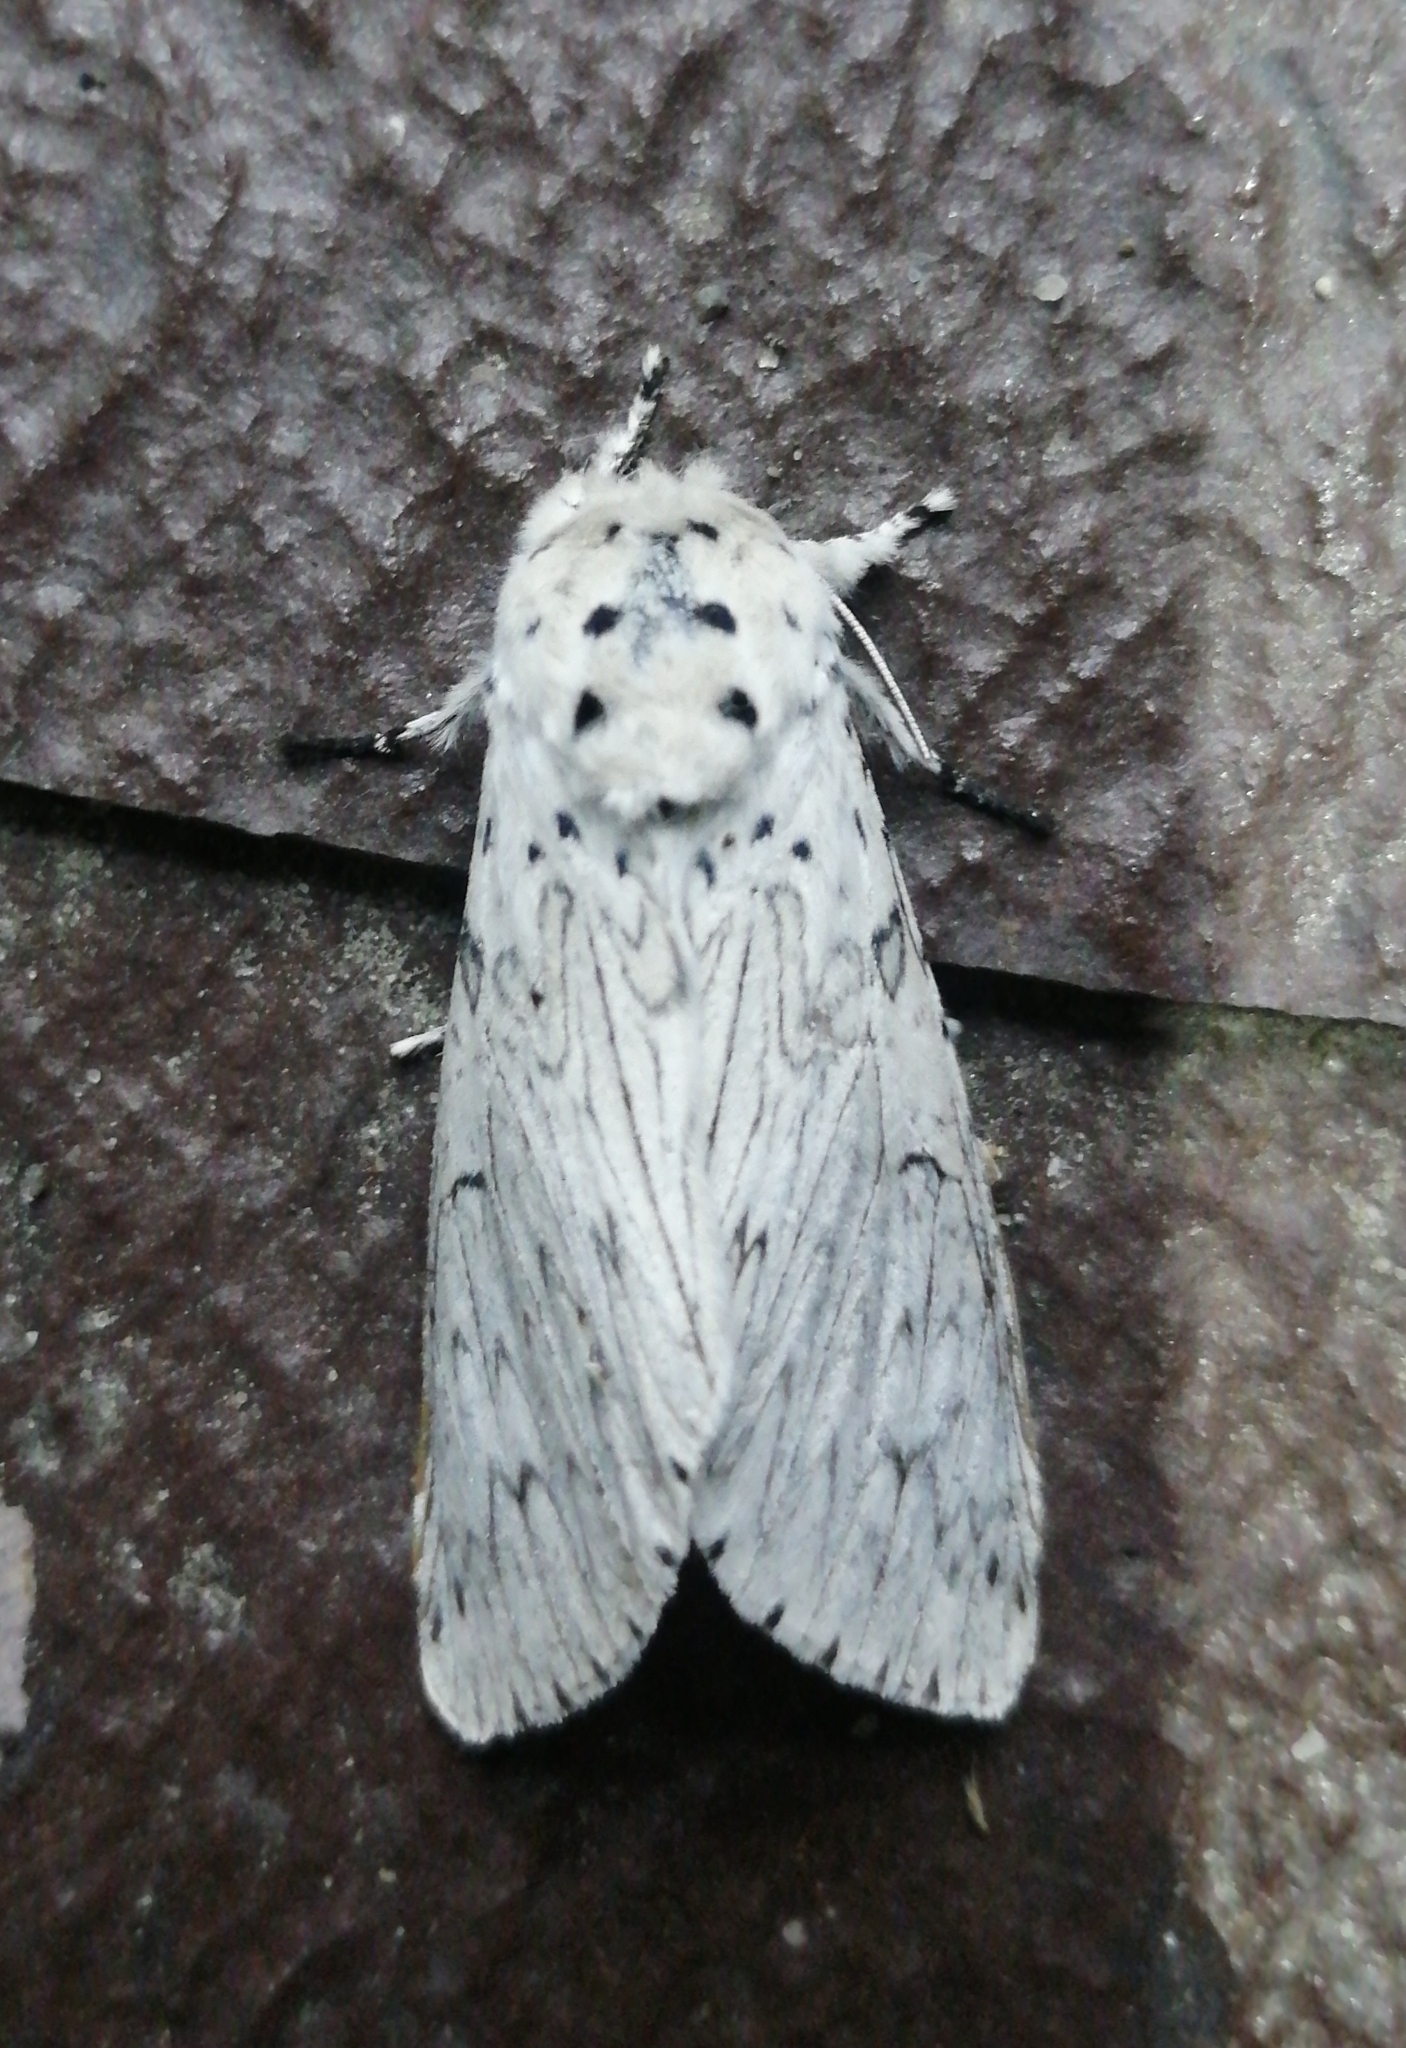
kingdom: Animalia
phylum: Arthropoda
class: Insecta
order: Lepidoptera
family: Notodontidae
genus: Cerura
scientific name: Cerura erminea
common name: Lesser puss moth
